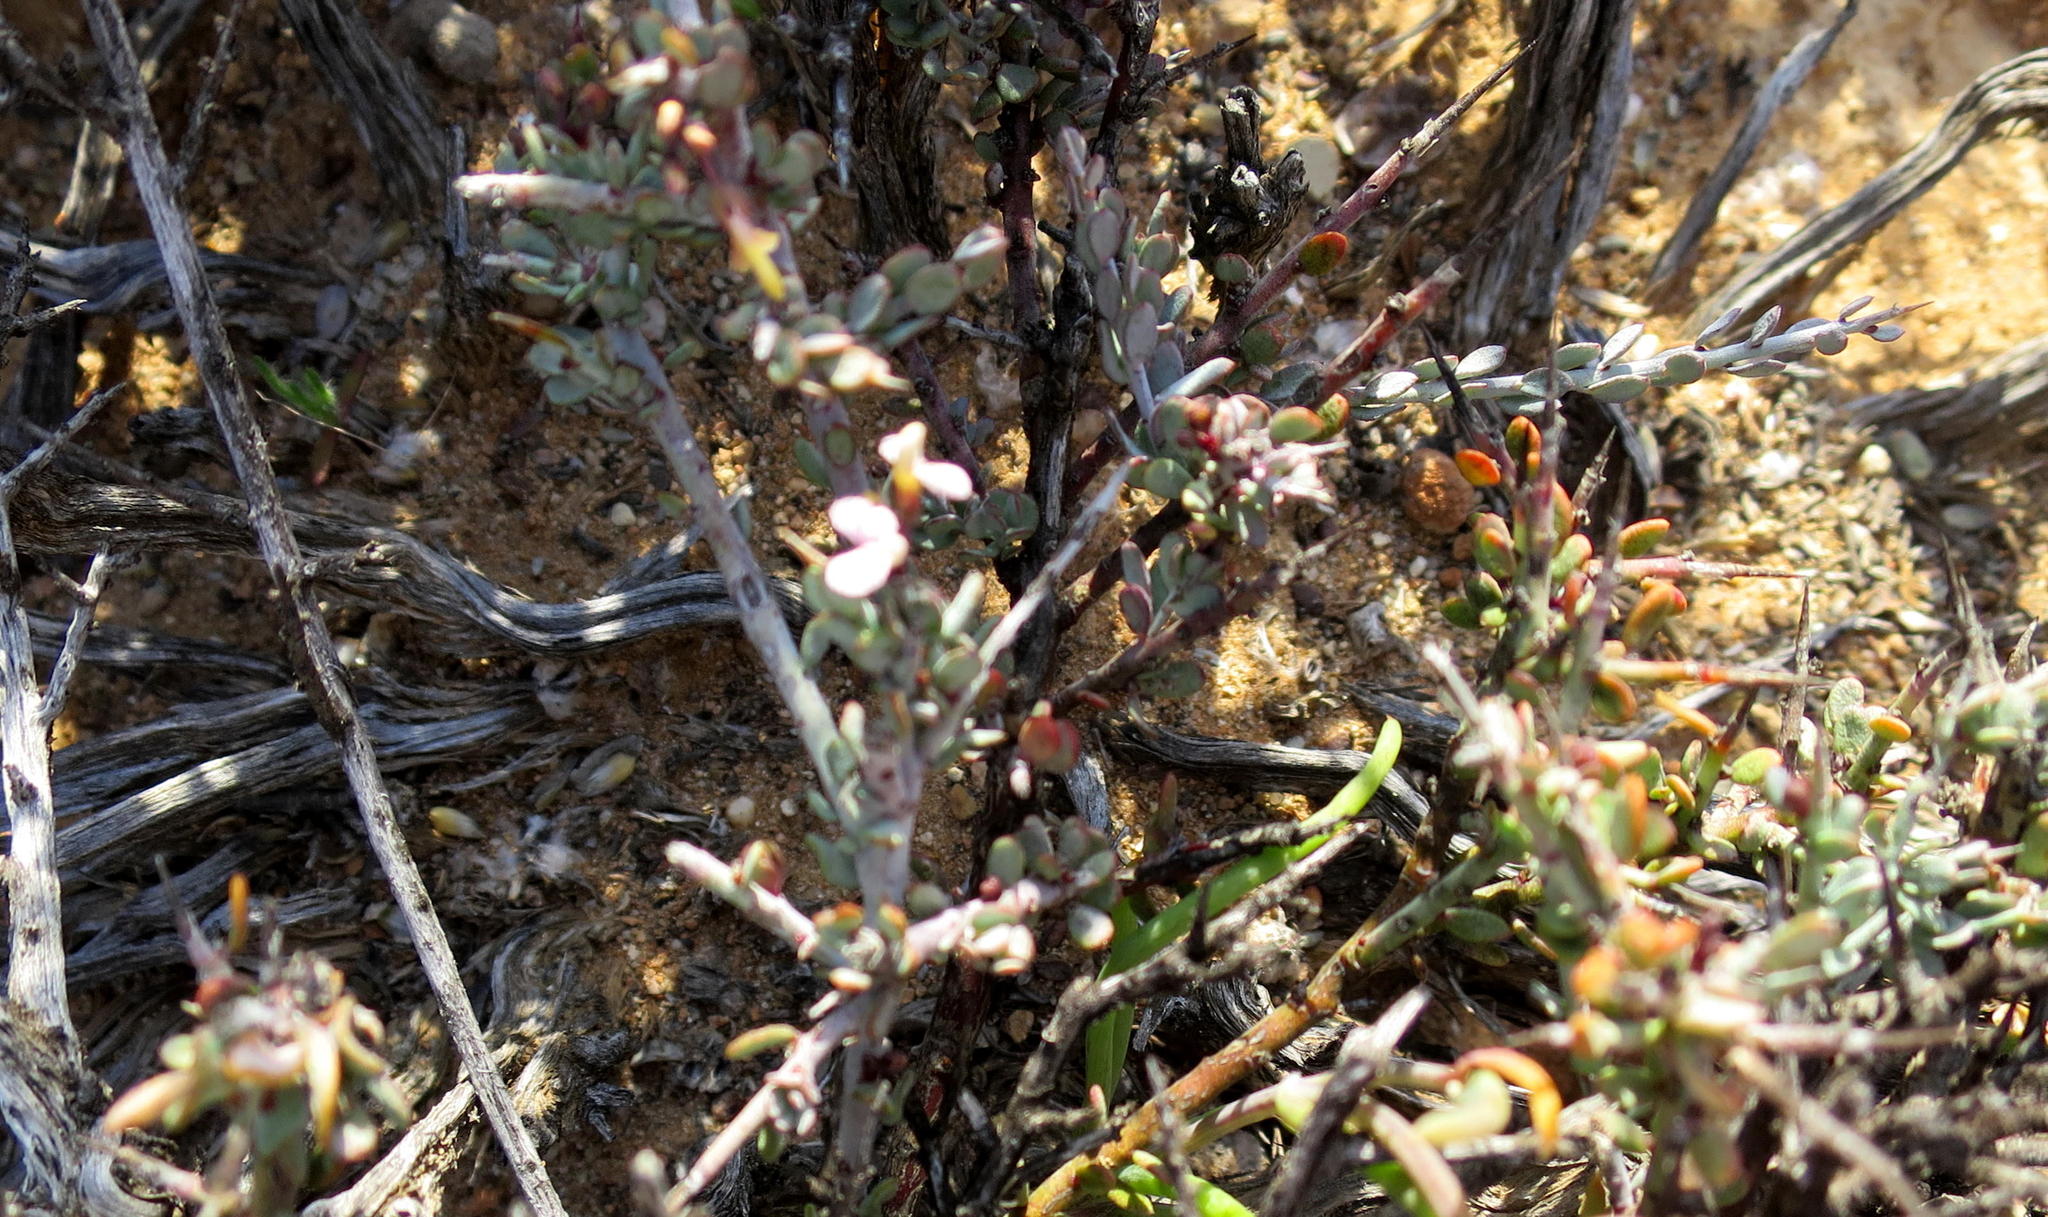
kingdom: Plantae
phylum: Tracheophyta
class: Magnoliopsida
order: Fabales
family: Polygalaceae
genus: Muraltia
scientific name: Muraltia karroica
